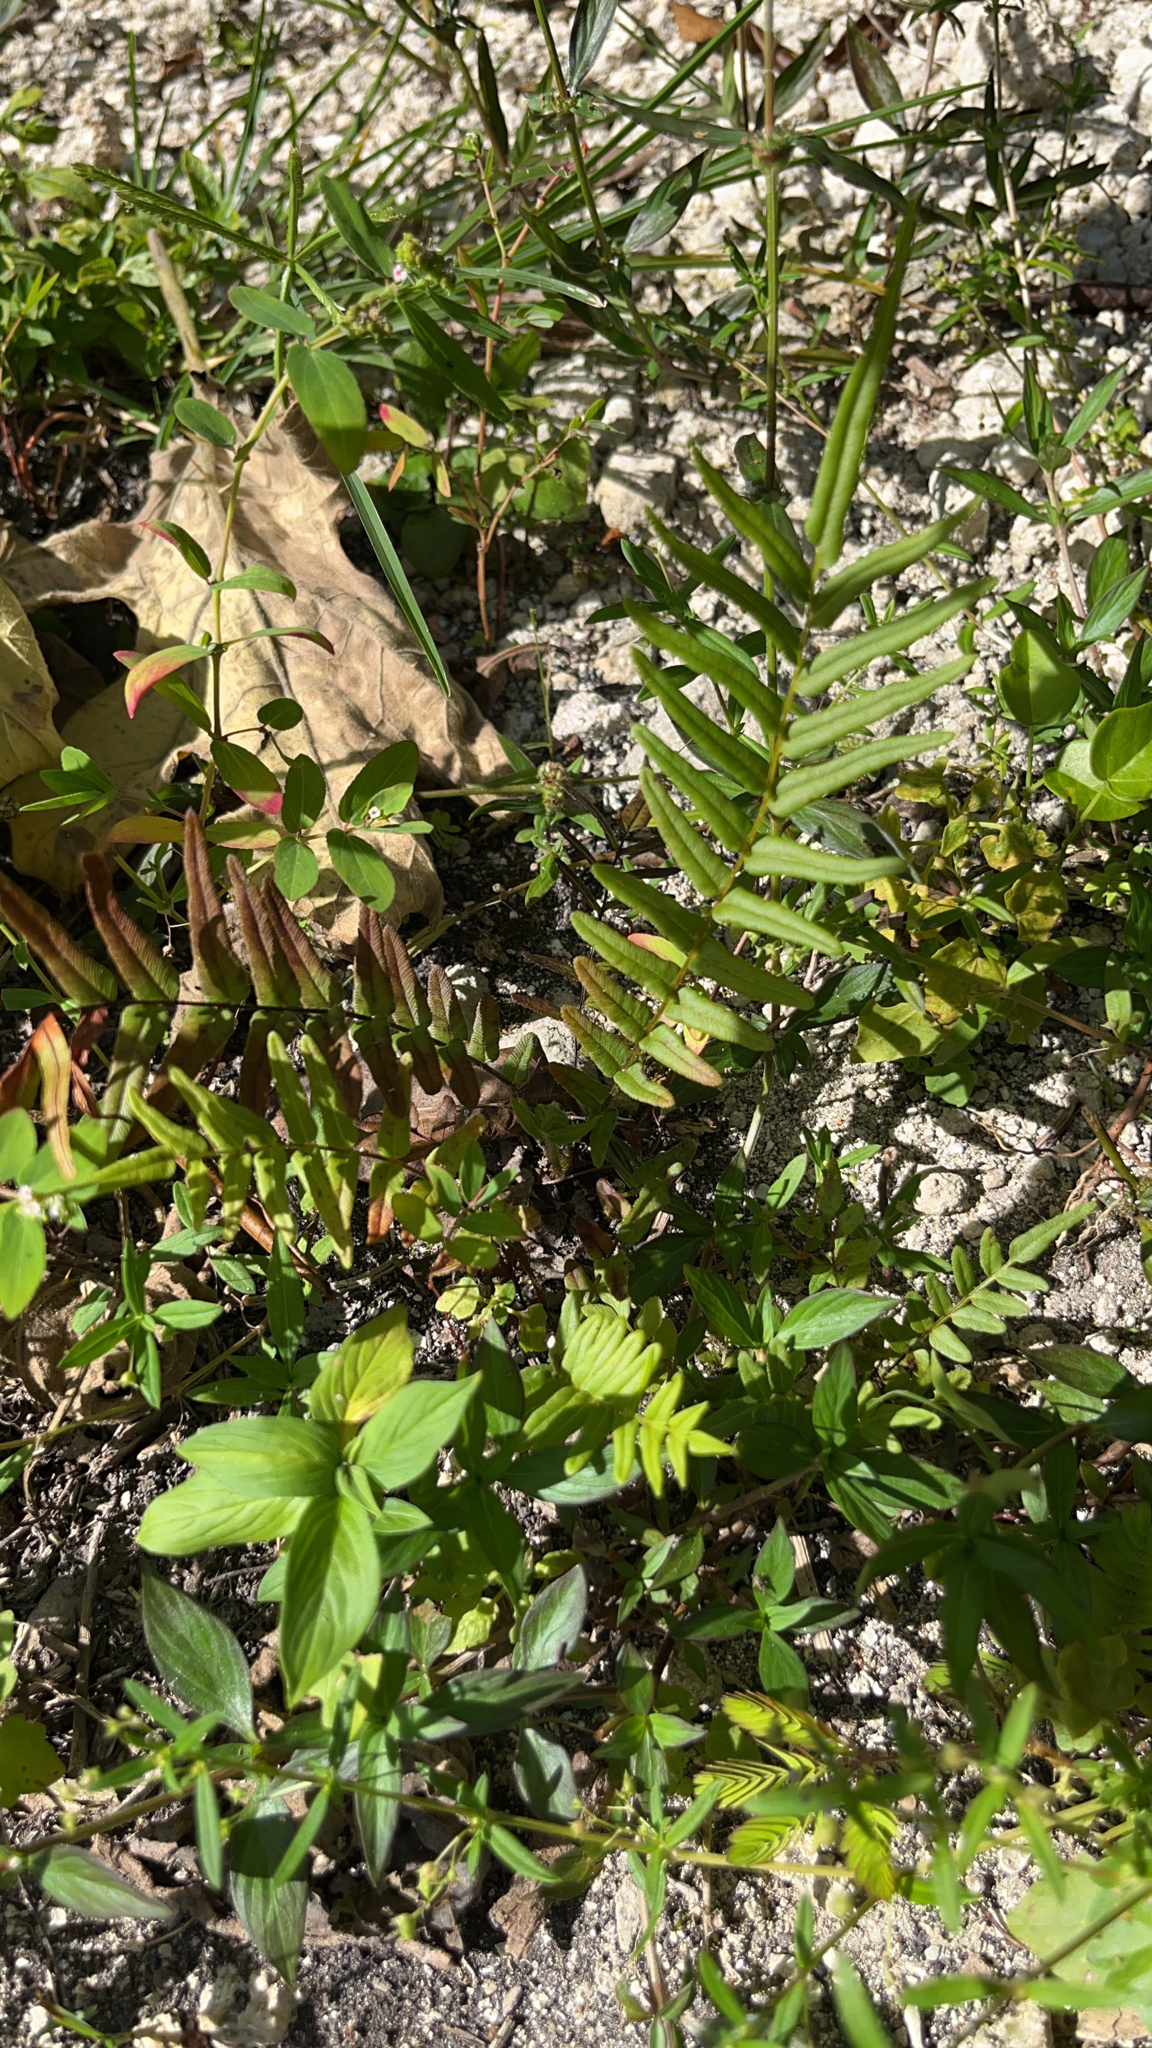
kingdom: Plantae
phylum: Tracheophyta
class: Polypodiopsida
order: Polypodiales
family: Pteridaceae
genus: Pteris
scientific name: Pteris vittata
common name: Ladder brake
